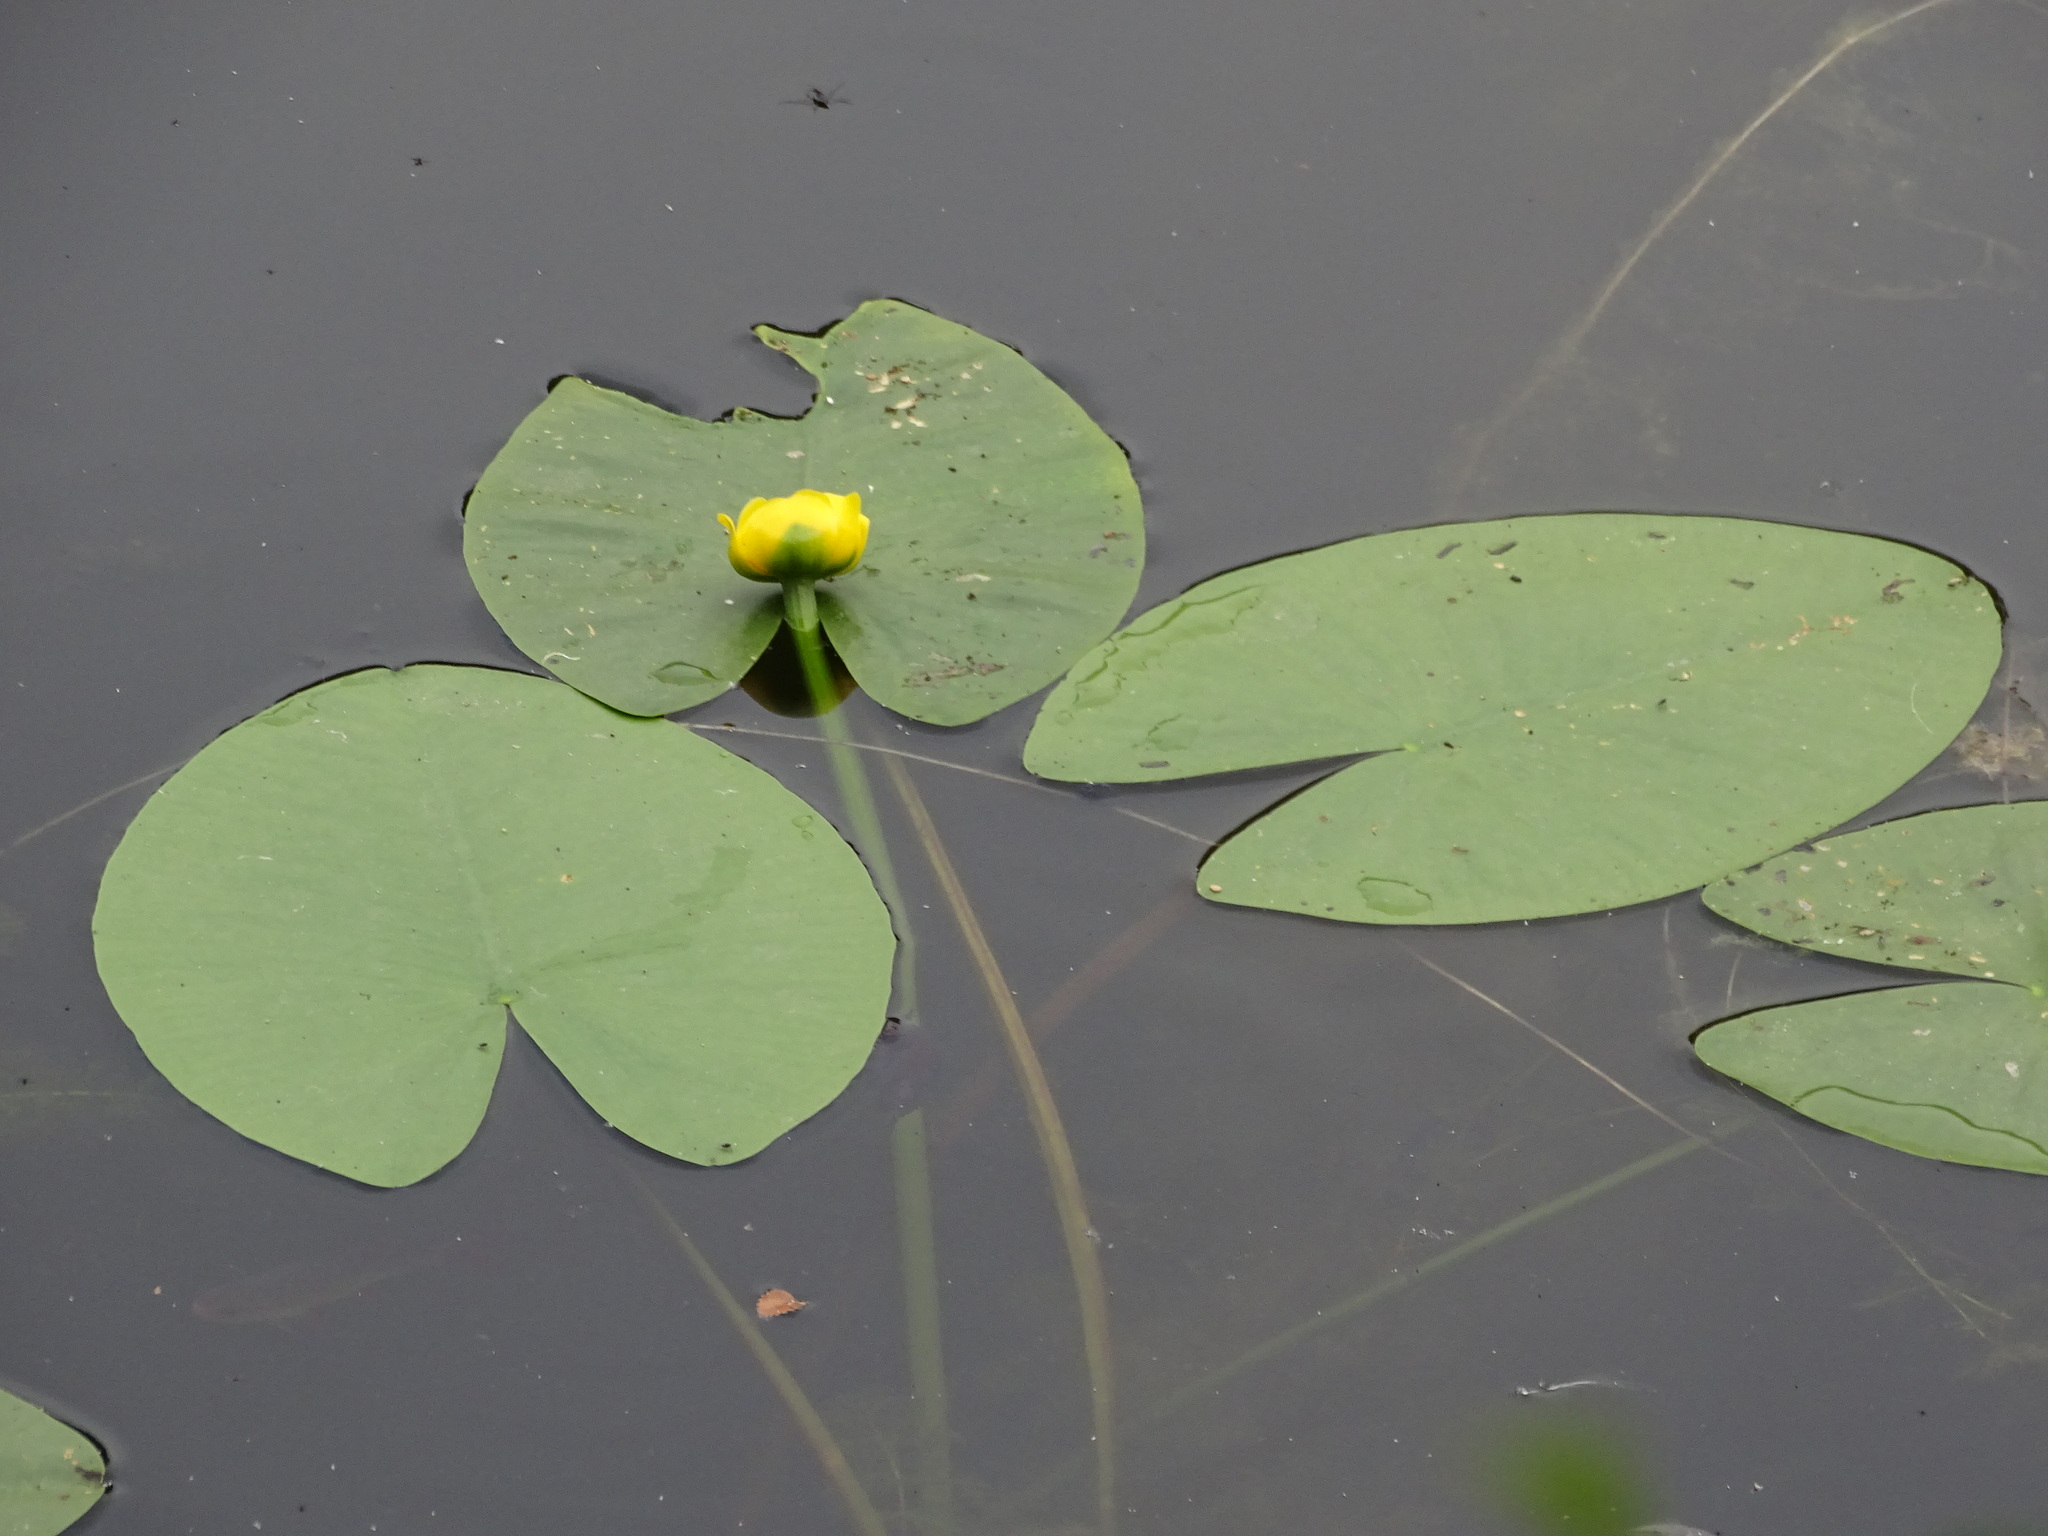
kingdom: Plantae
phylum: Tracheophyta
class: Magnoliopsida
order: Nymphaeales
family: Nymphaeaceae
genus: Nuphar
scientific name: Nuphar lutea
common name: Yellow water-lily
